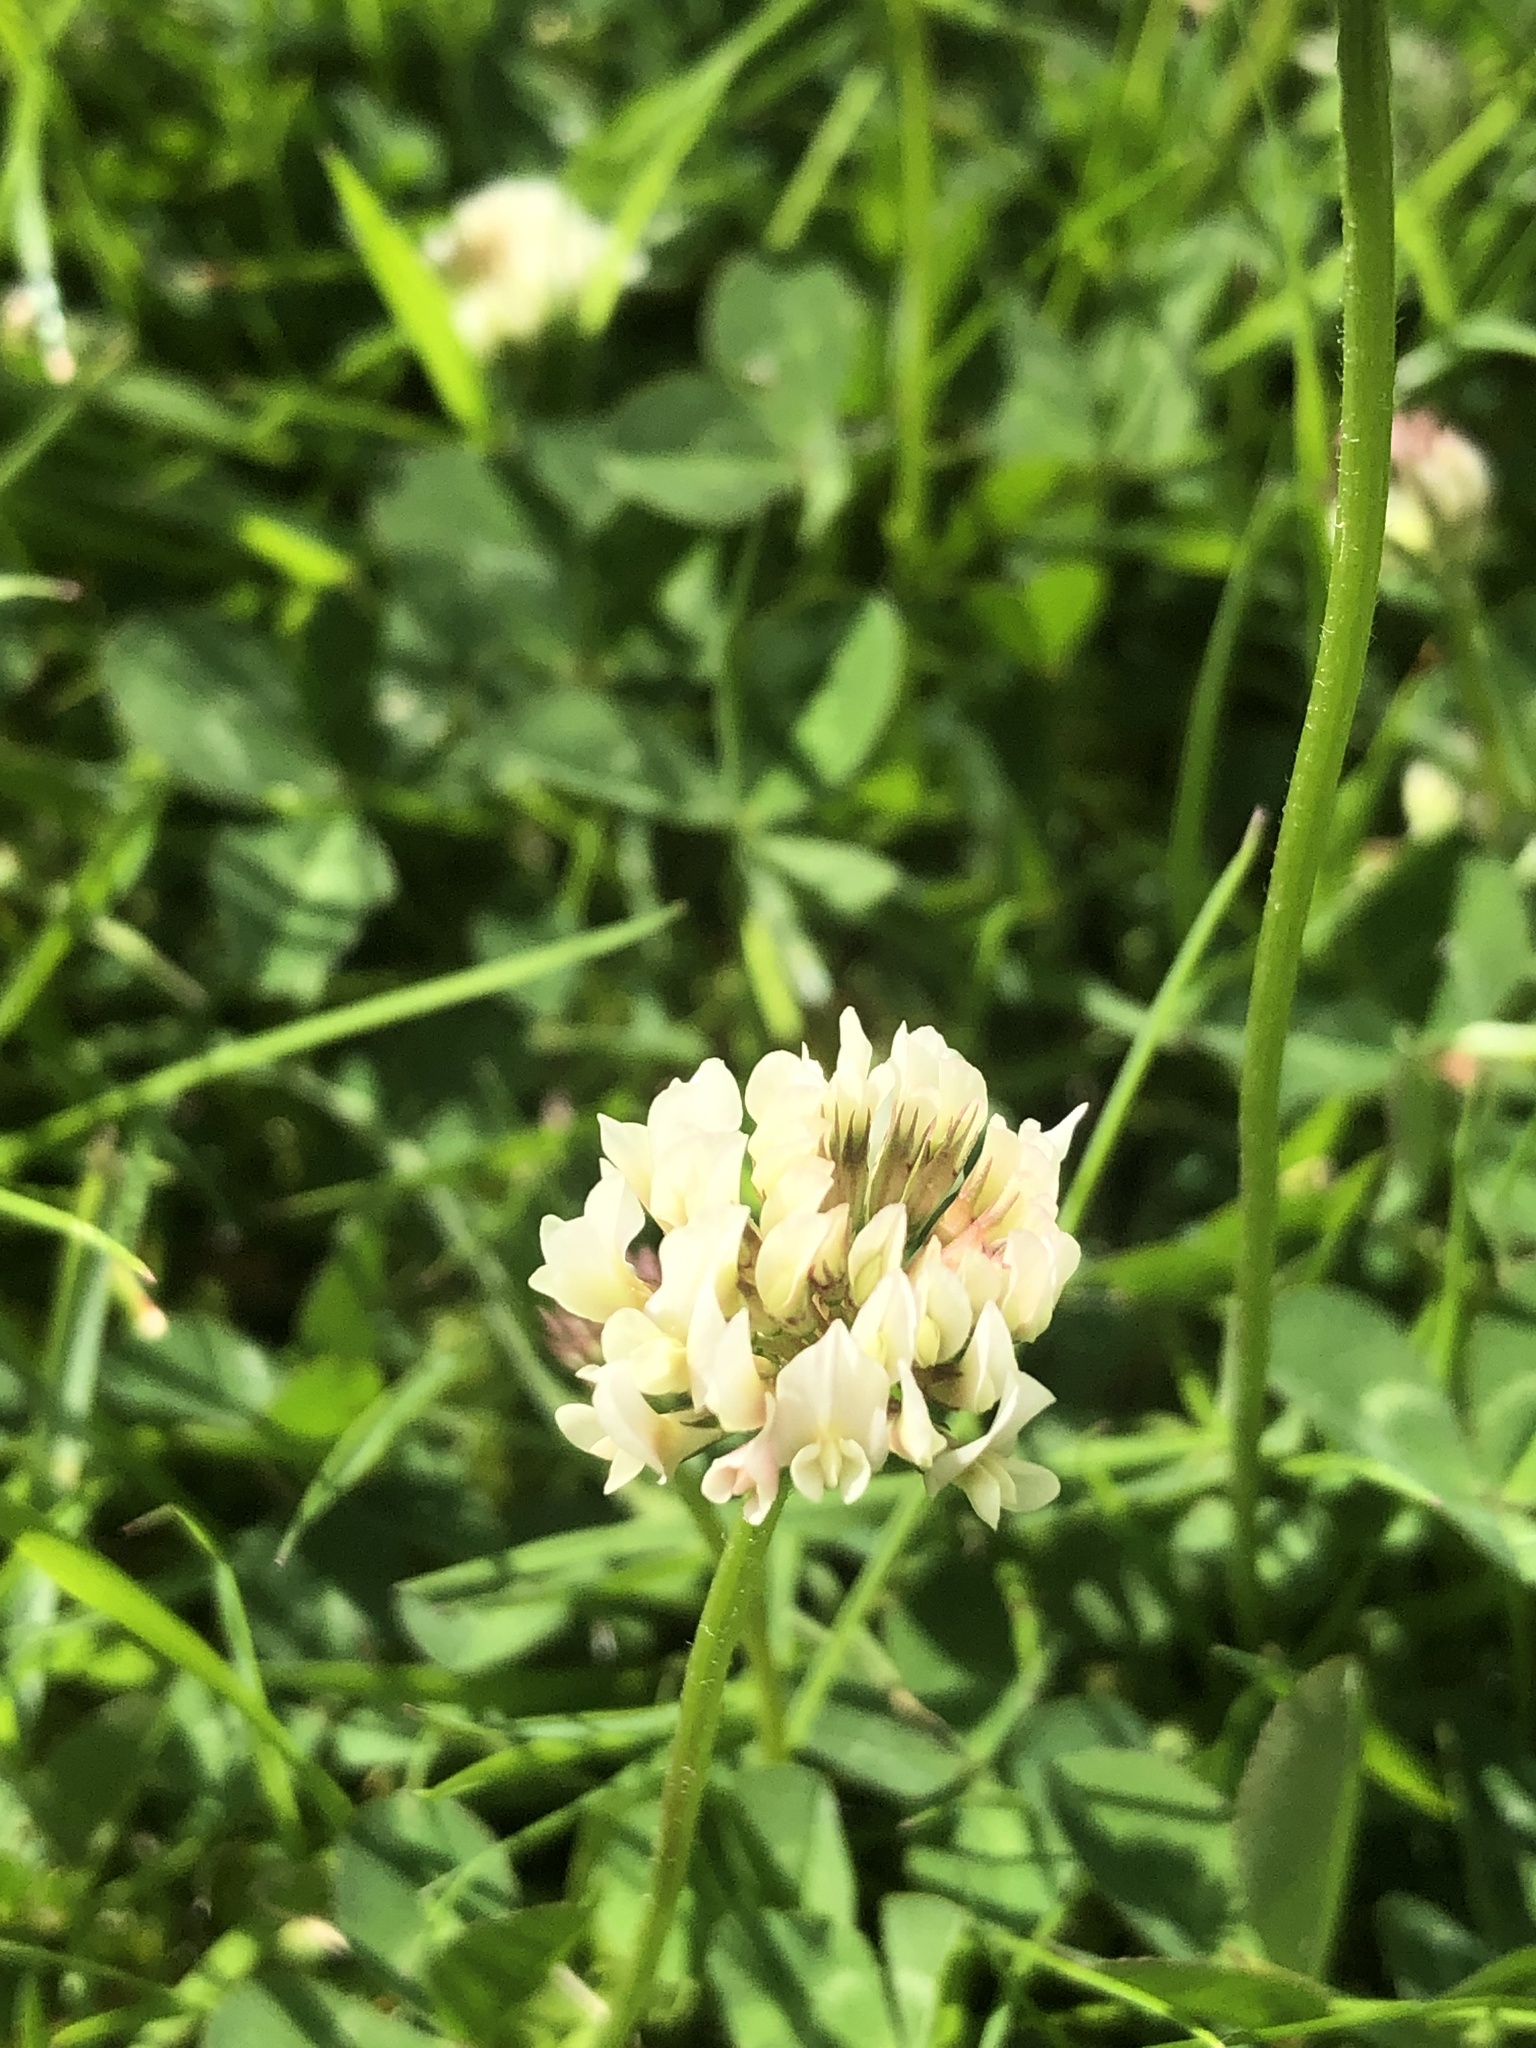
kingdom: Plantae
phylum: Tracheophyta
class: Magnoliopsida
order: Fabales
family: Fabaceae
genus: Trifolium
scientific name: Trifolium repens
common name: White clover
